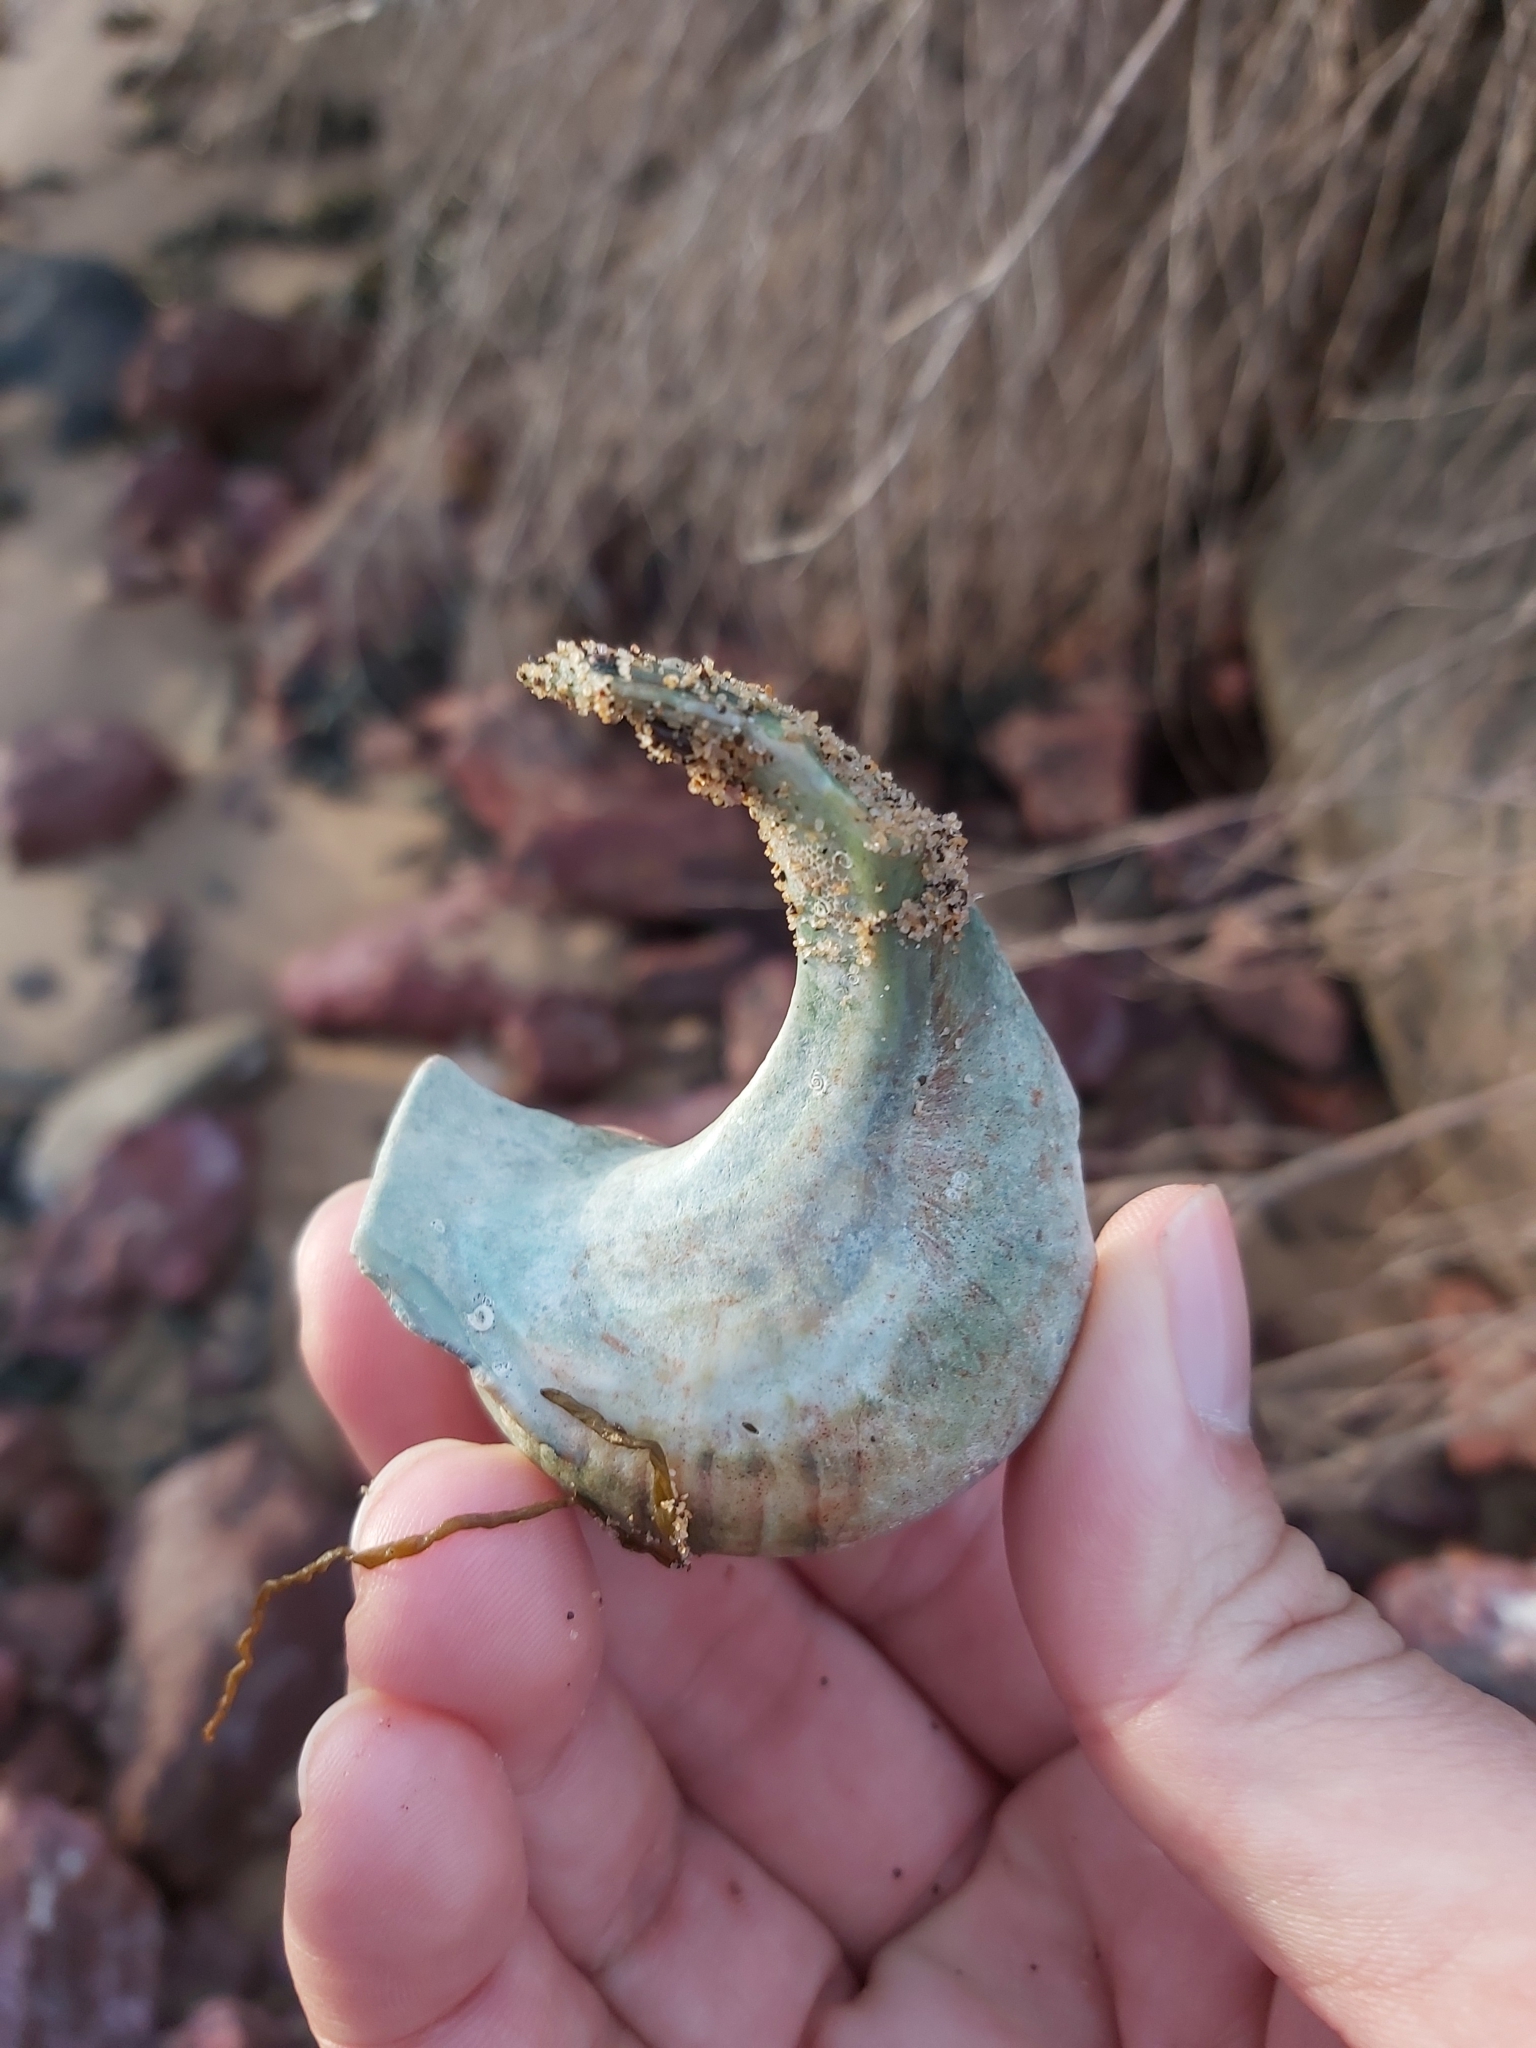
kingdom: Animalia
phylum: Mollusca
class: Gastropoda
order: Trochida
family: Turbinidae
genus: Turbo
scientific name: Turbo militaris
